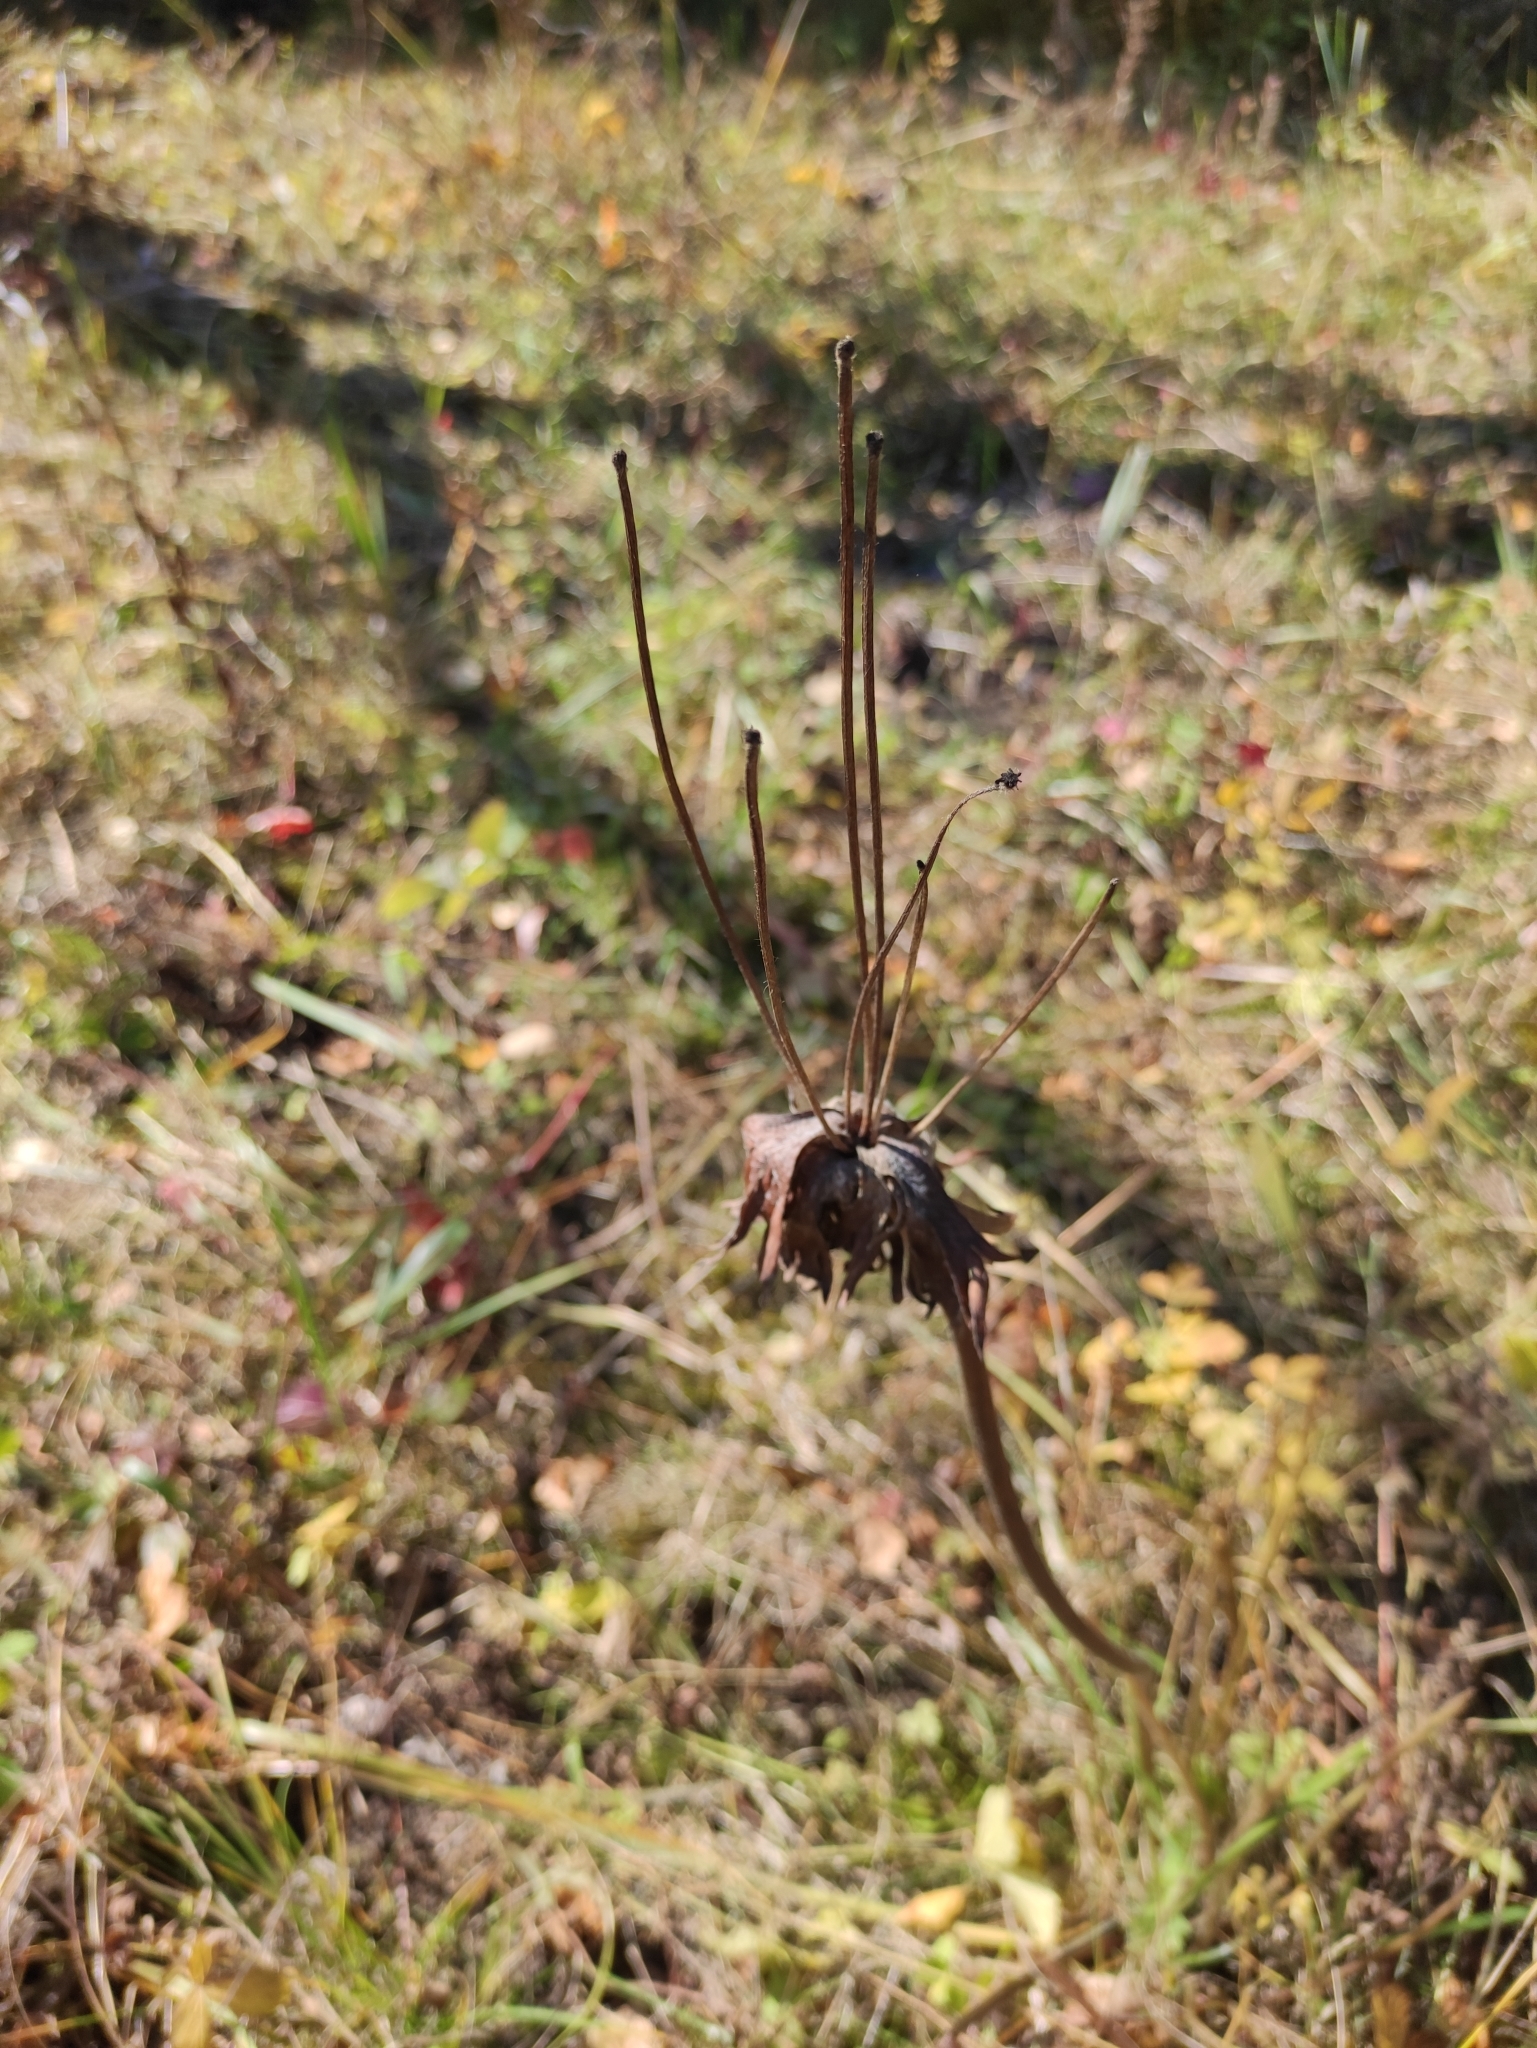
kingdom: Plantae
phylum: Tracheophyta
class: Magnoliopsida
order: Ranunculales
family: Ranunculaceae
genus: Anemonastrum
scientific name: Anemonastrum narcissiflorum
